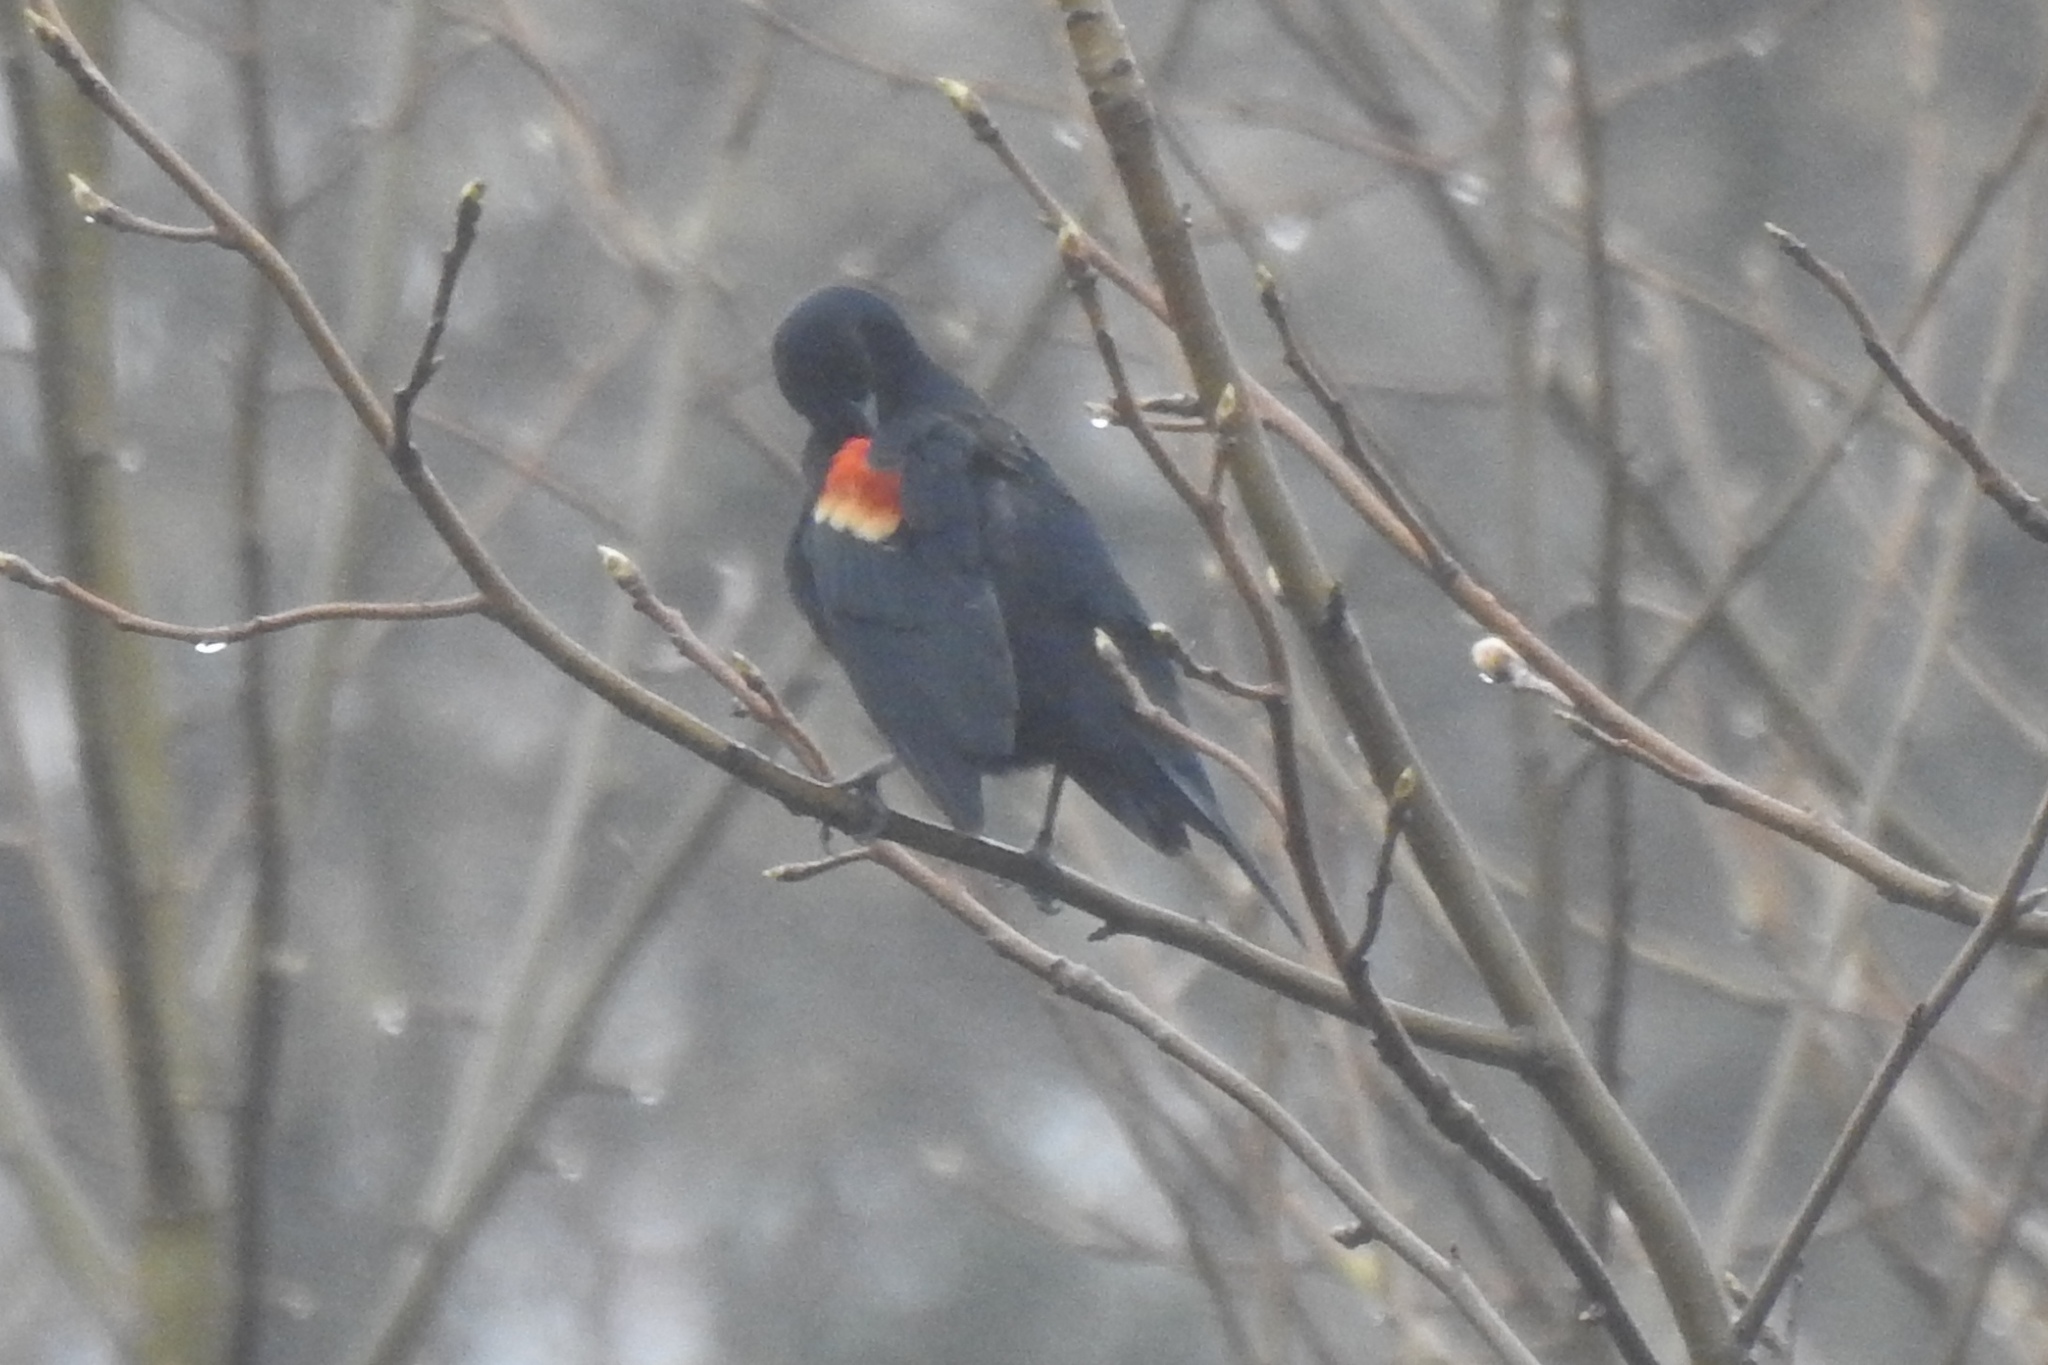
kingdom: Animalia
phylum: Chordata
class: Aves
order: Passeriformes
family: Icteridae
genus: Agelaius
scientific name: Agelaius phoeniceus
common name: Red-winged blackbird
